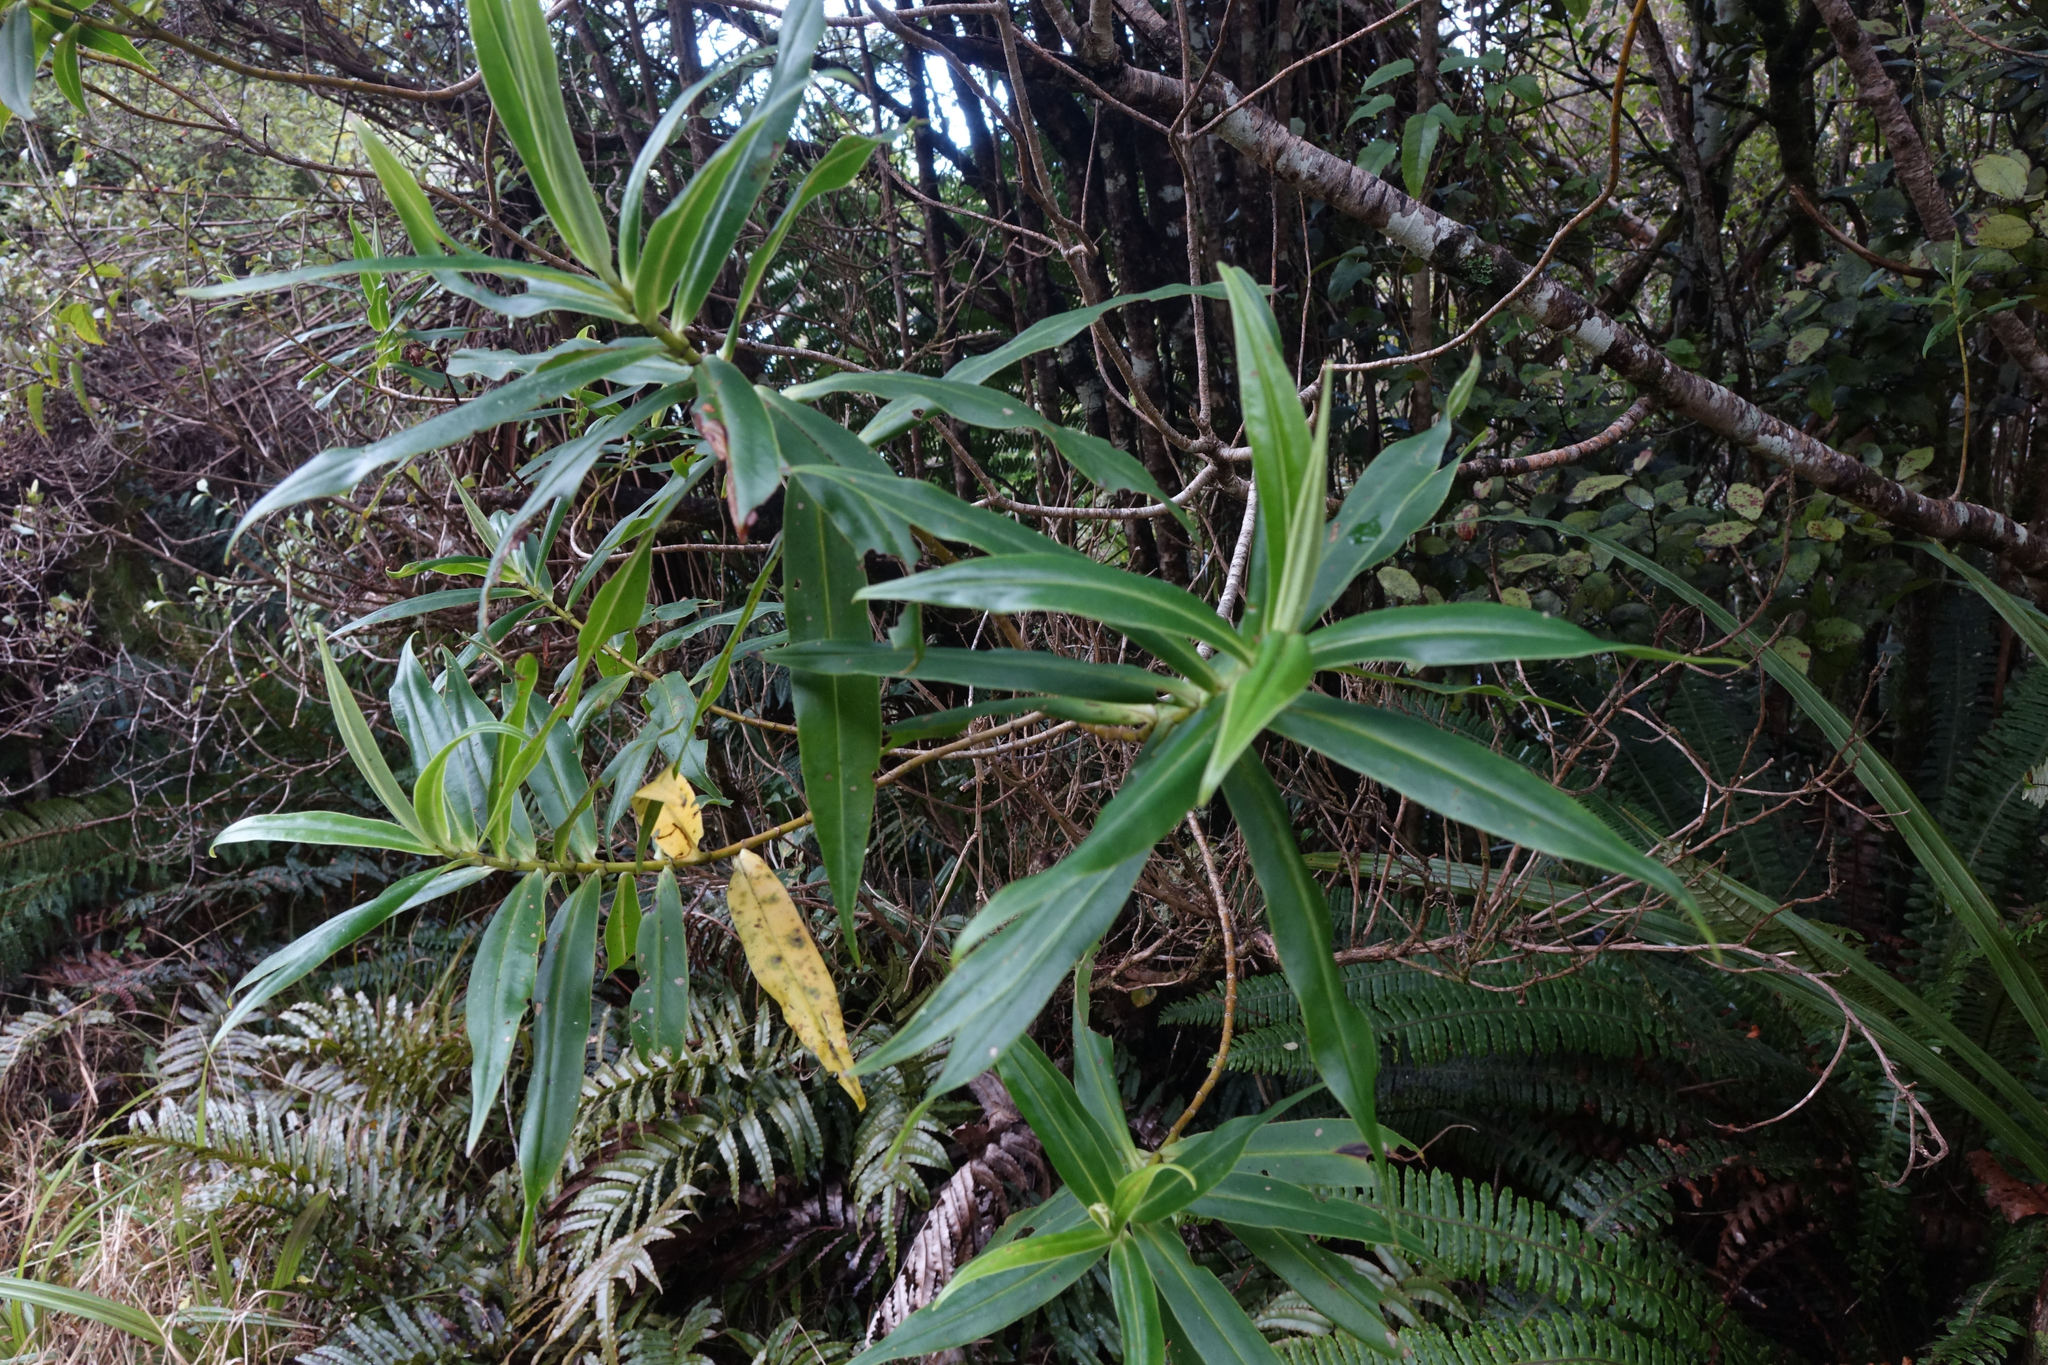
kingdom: Plantae
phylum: Tracheophyta
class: Magnoliopsida
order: Lamiales
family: Plantaginaceae
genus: Veronica
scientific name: Veronica salicifolia
